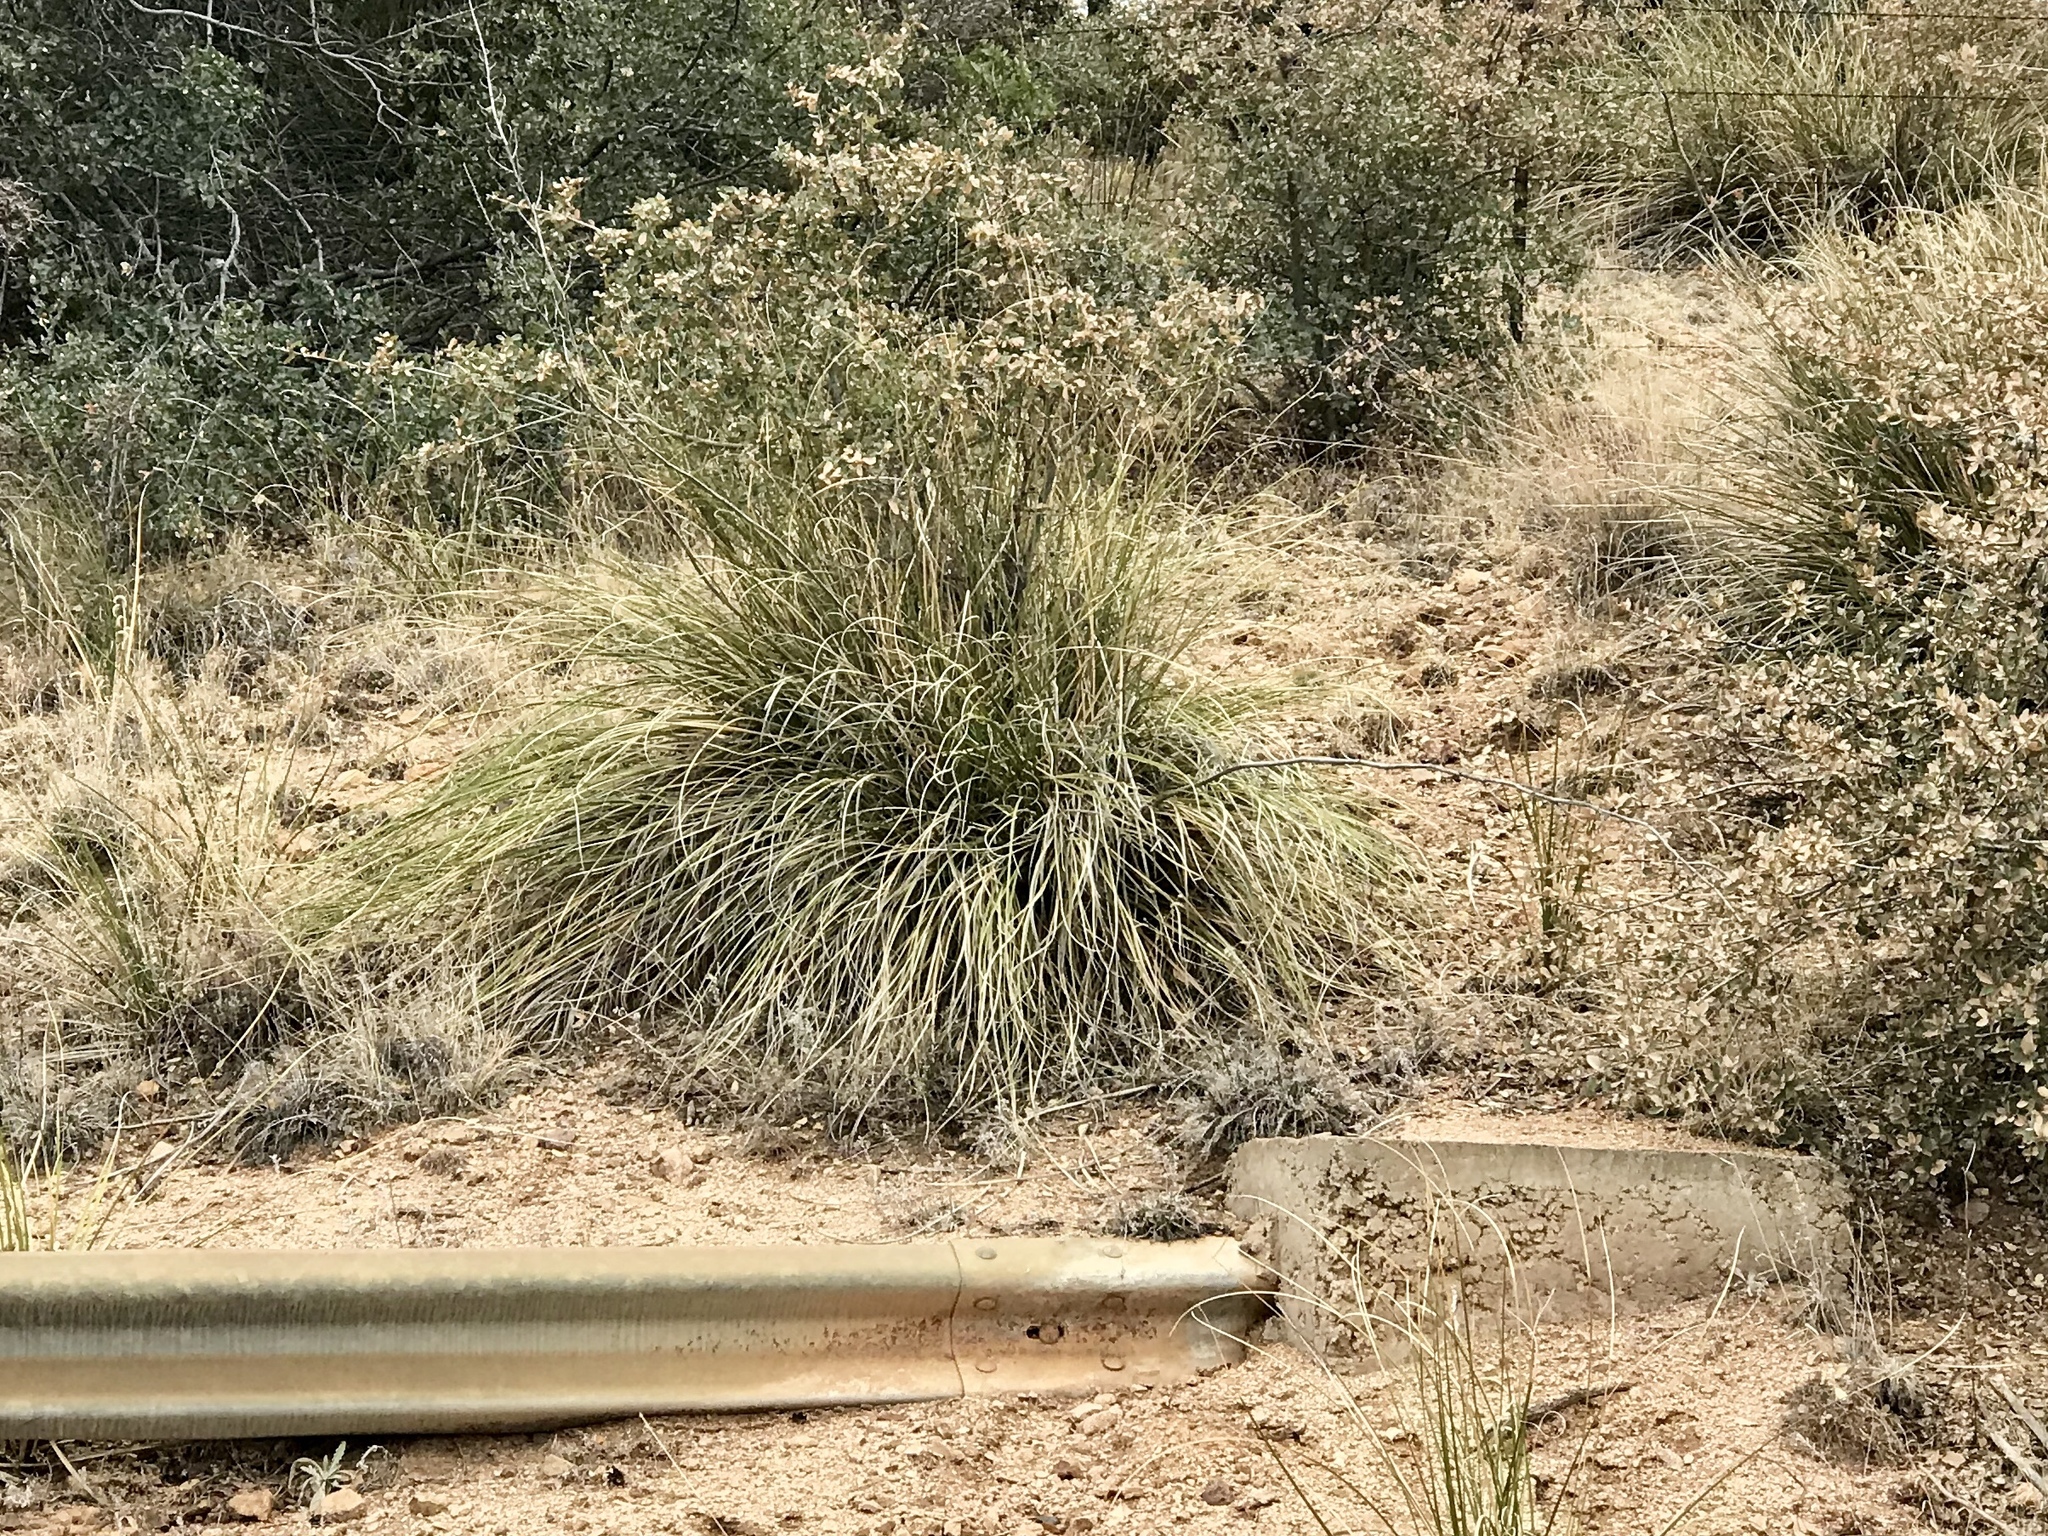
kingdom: Plantae
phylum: Tracheophyta
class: Liliopsida
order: Asparagales
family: Asparagaceae
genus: Nolina
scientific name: Nolina microcarpa
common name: Bear-grass
